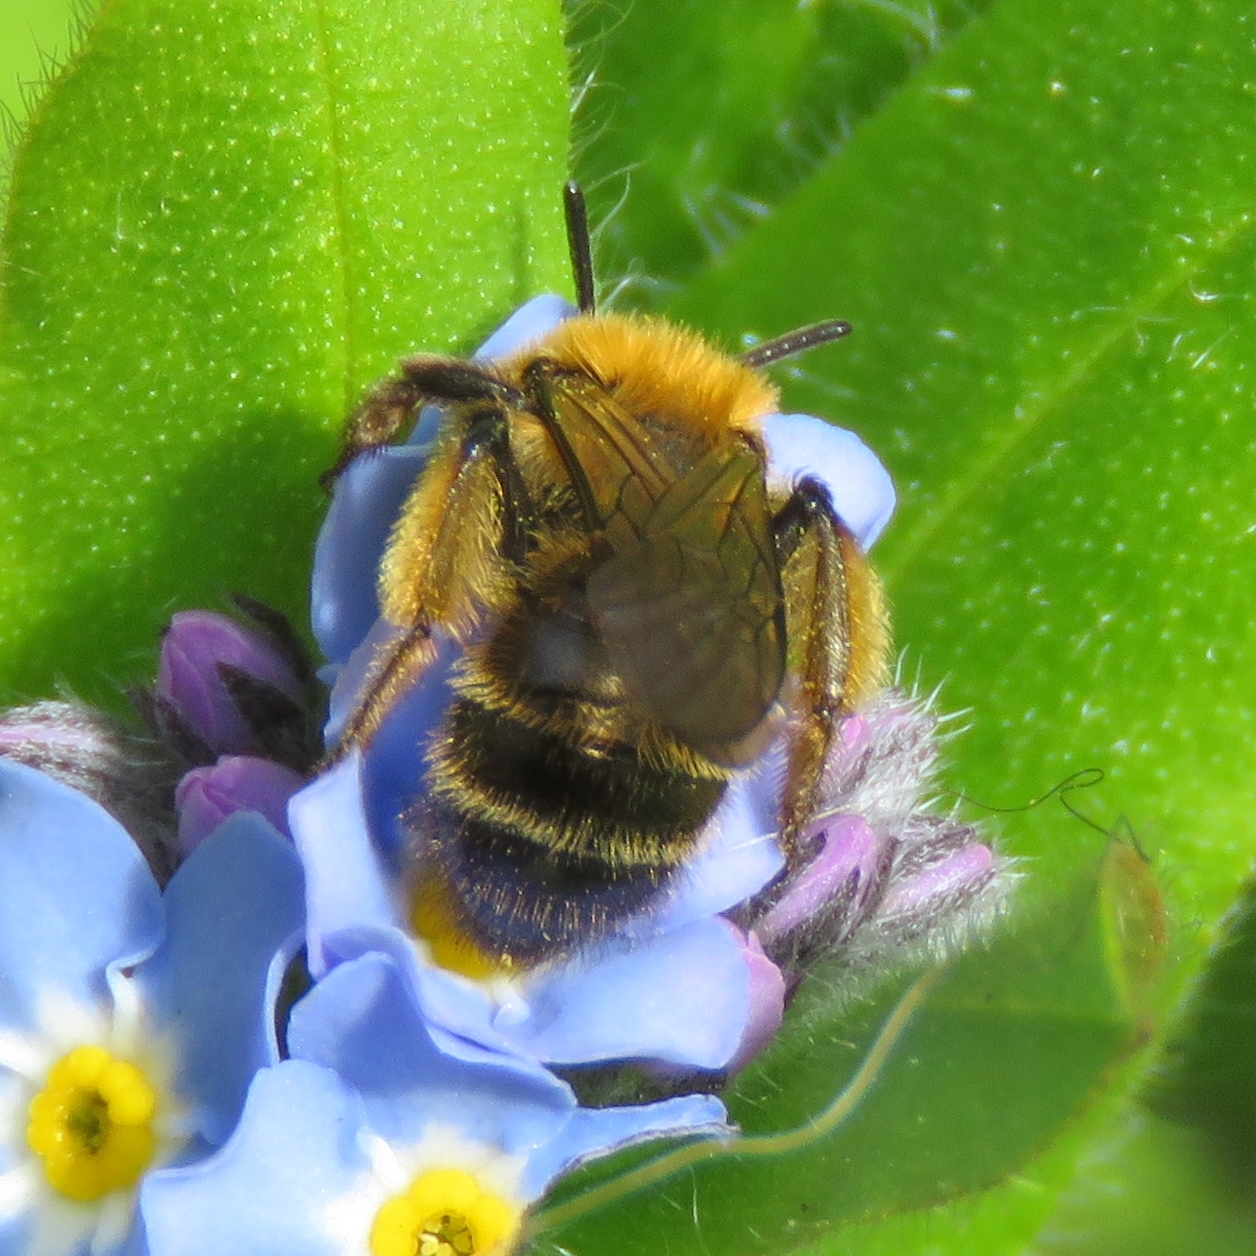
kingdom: Animalia
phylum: Arthropoda
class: Insecta
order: Hymenoptera
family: Andrenidae
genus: Andrena
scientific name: Andrena bicolor
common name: Gwynne's mining bee
